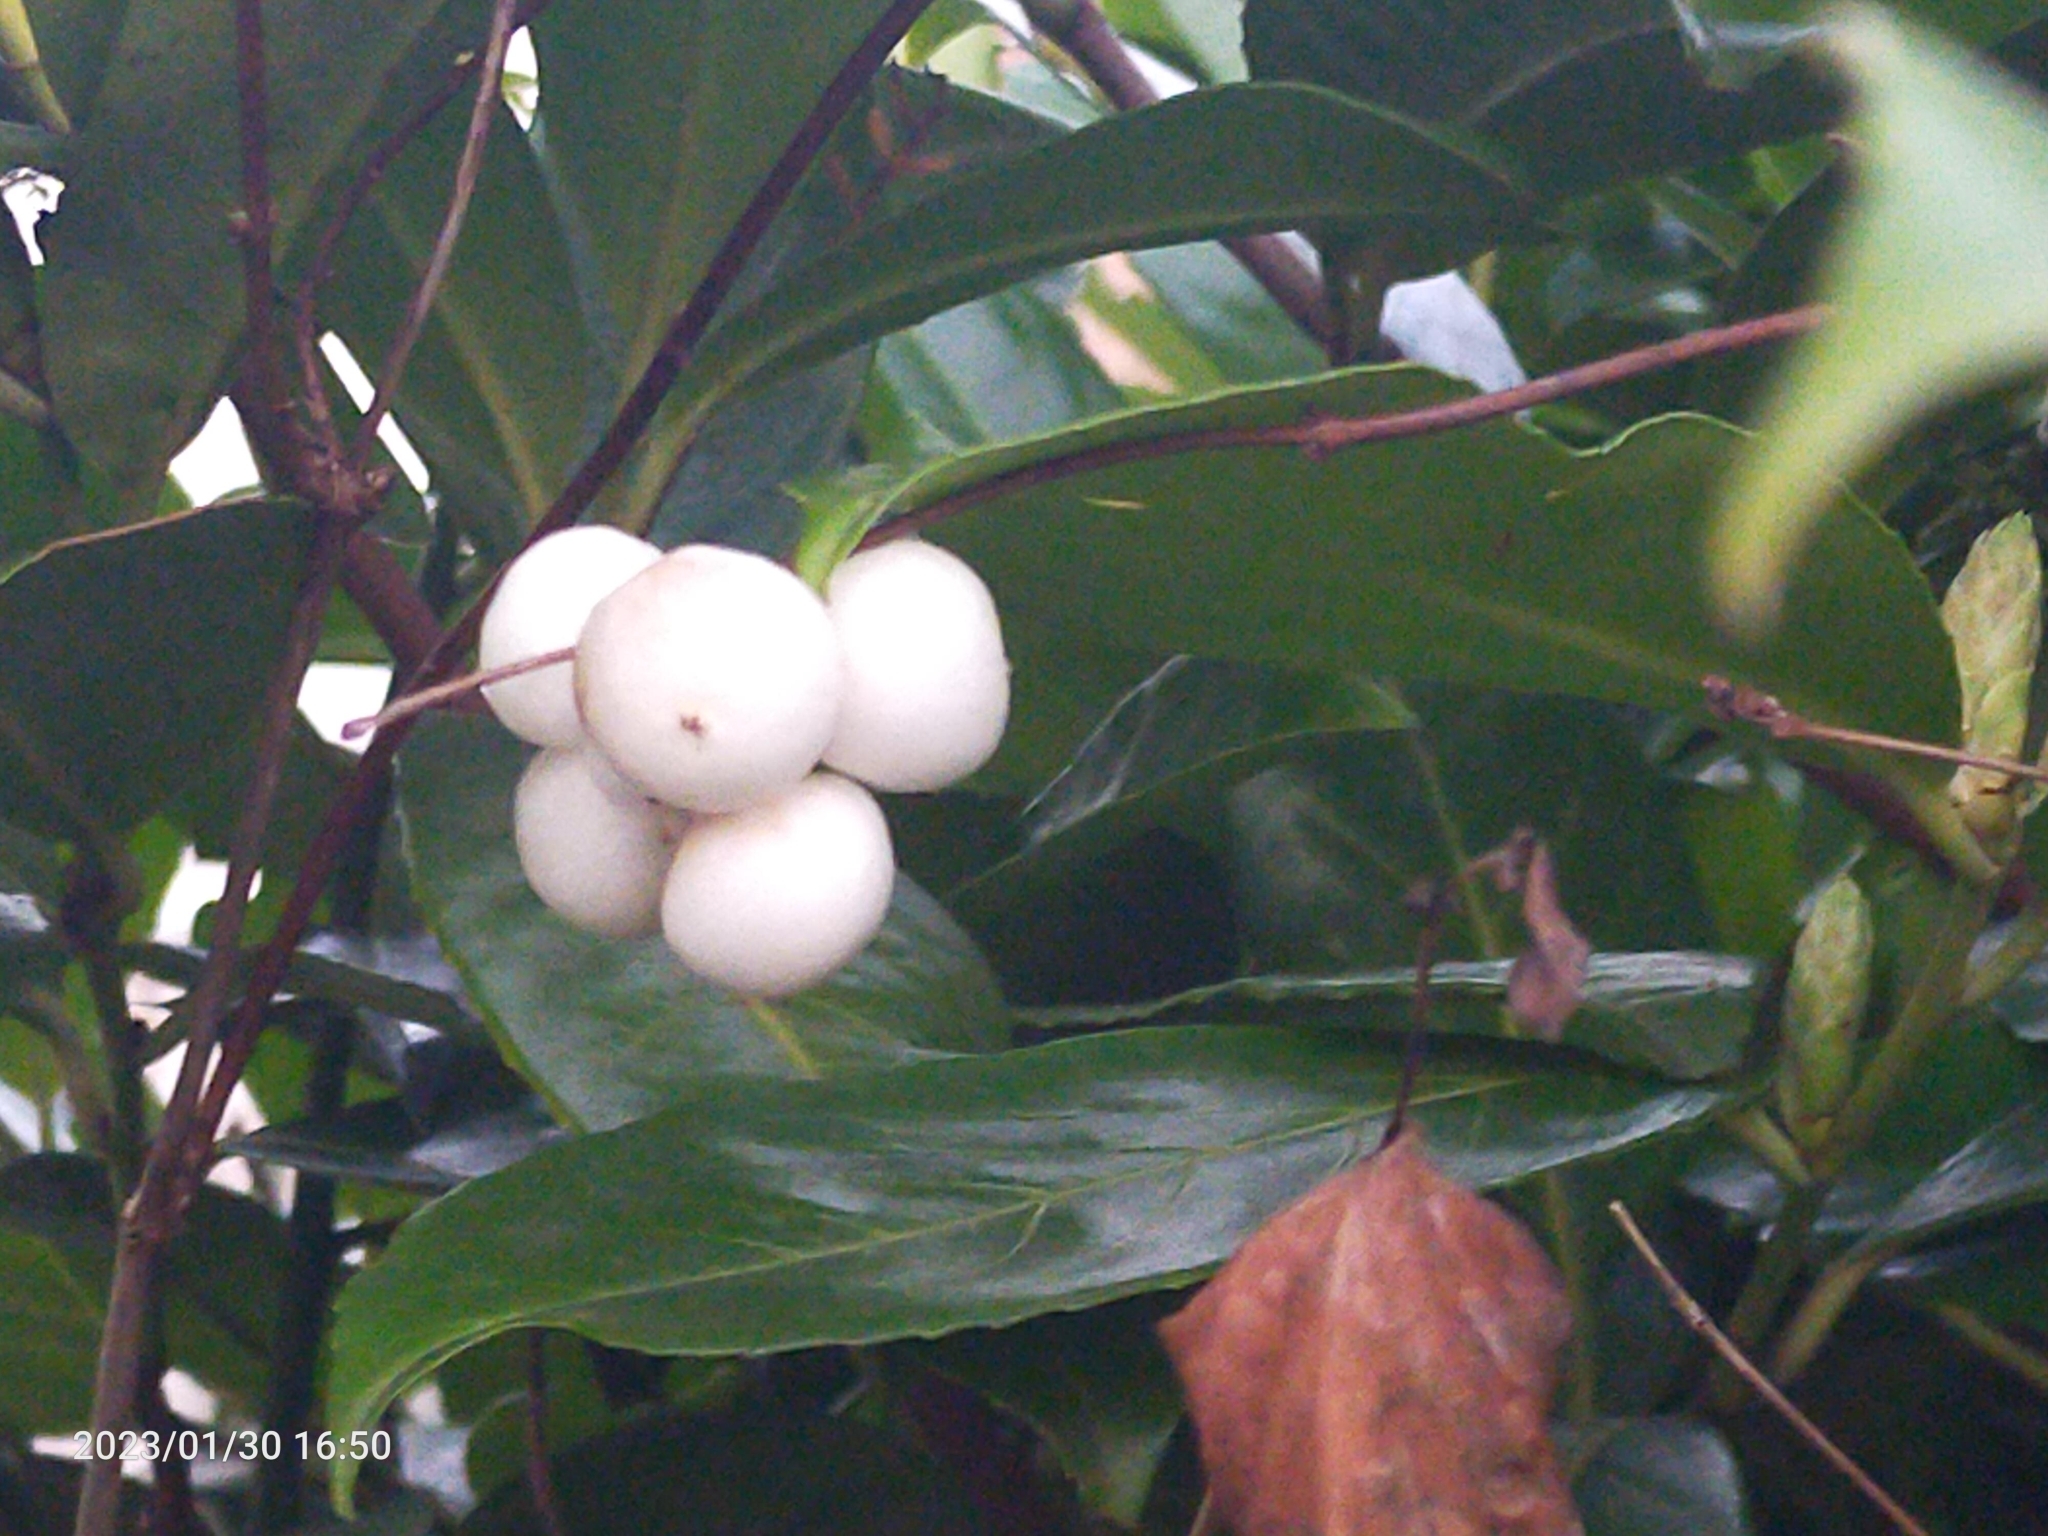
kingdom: Plantae
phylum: Tracheophyta
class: Magnoliopsida
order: Dipsacales
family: Caprifoliaceae
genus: Symphoricarpos
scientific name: Symphoricarpos albus
